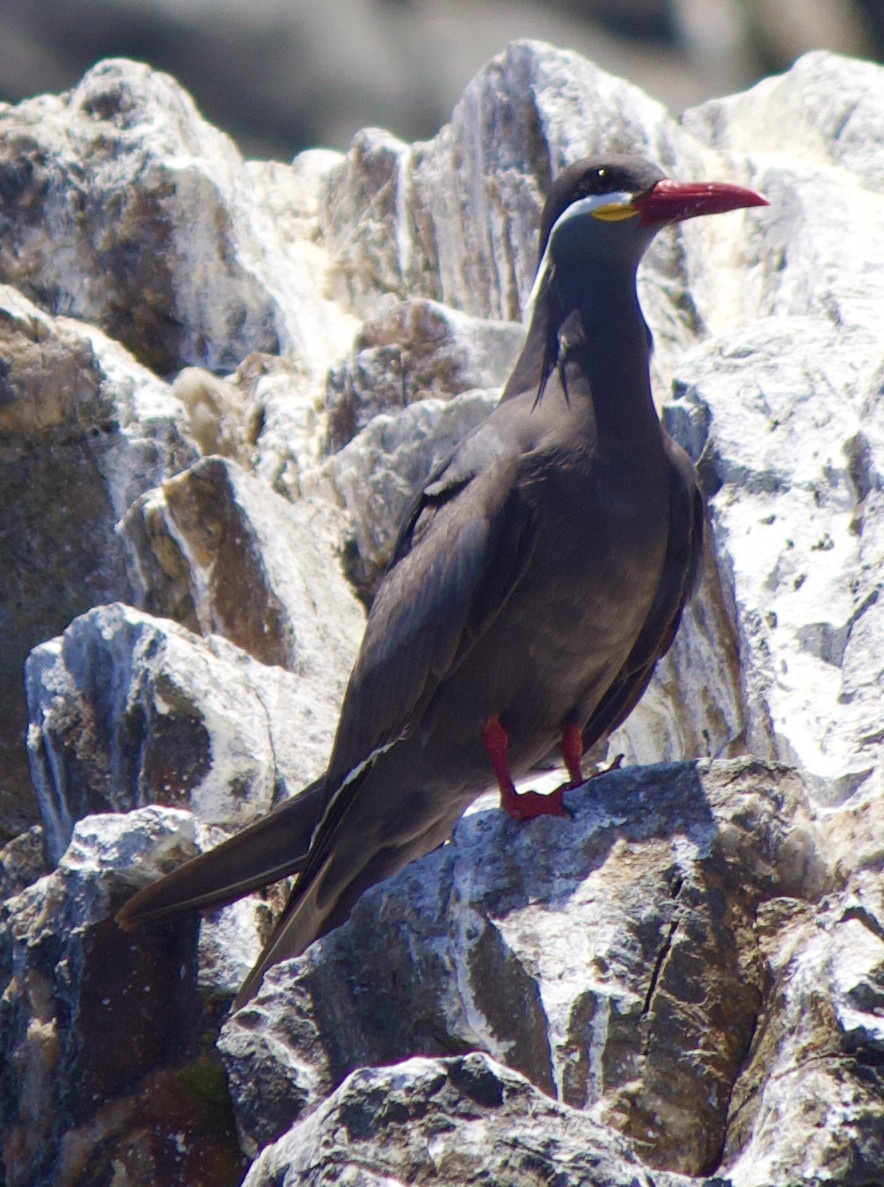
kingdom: Animalia
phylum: Chordata
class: Aves
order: Charadriiformes
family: Laridae
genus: Larosterna
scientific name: Larosterna inca
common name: Inca tern
